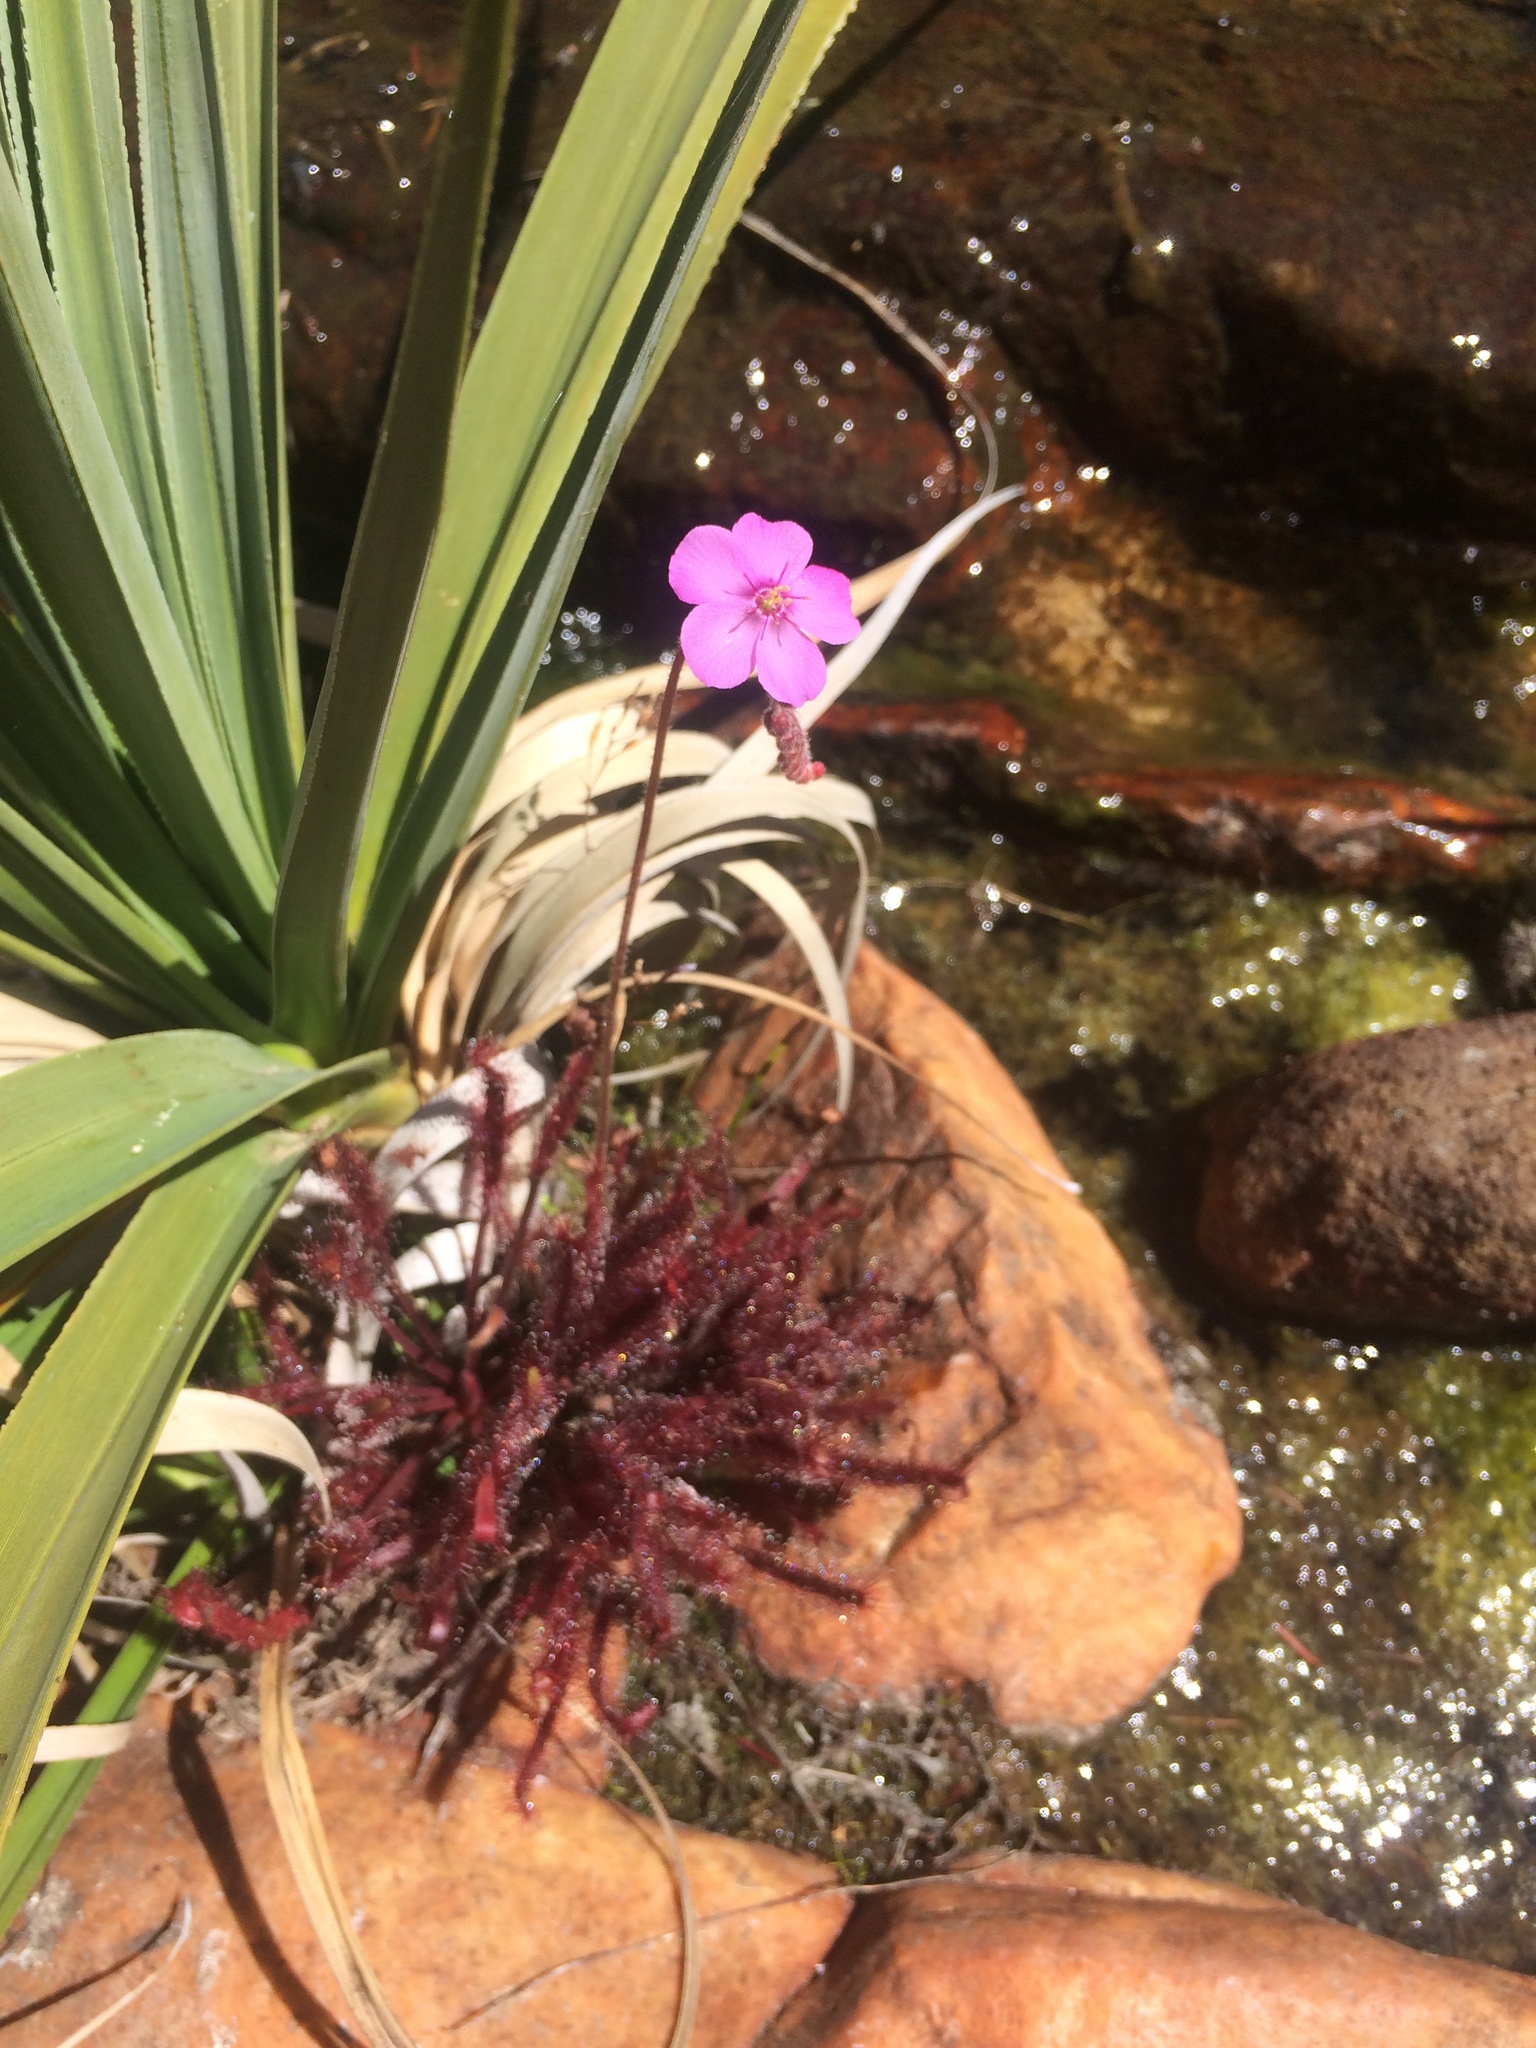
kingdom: Plantae
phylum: Tracheophyta
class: Magnoliopsida
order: Caryophyllales
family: Droseraceae
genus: Drosera
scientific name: Drosera capensis
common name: Cape sundew
